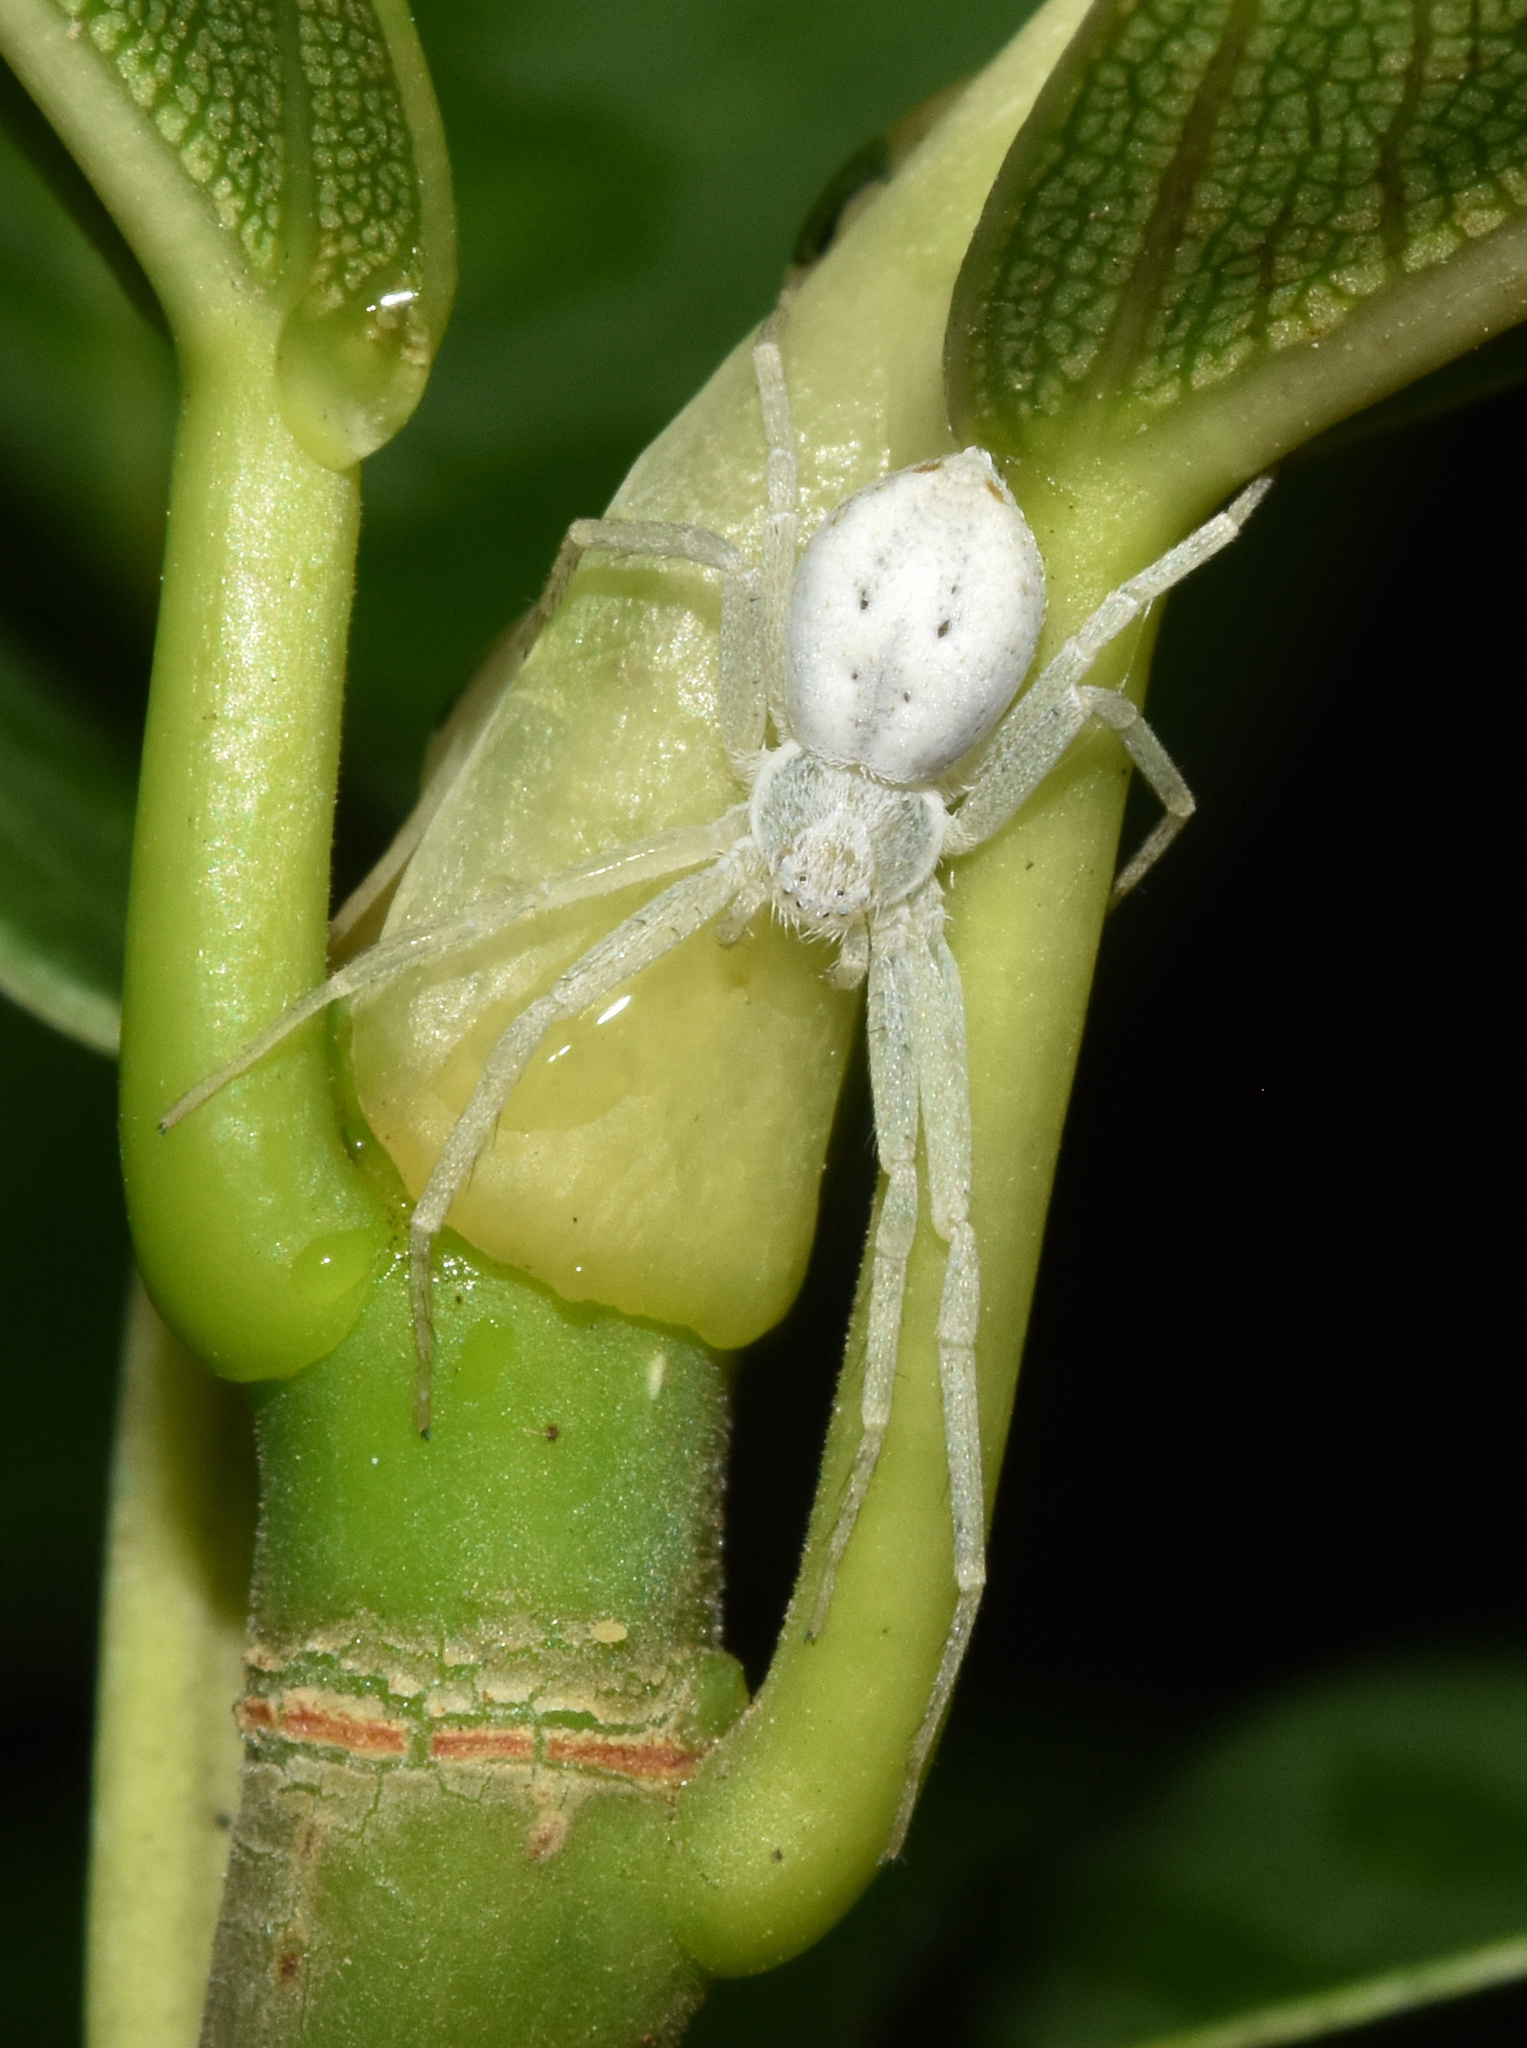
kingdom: Animalia
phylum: Arthropoda
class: Arachnida
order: Araneae
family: Philodromidae
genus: Gephyrota
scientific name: Gephyrota glauca
